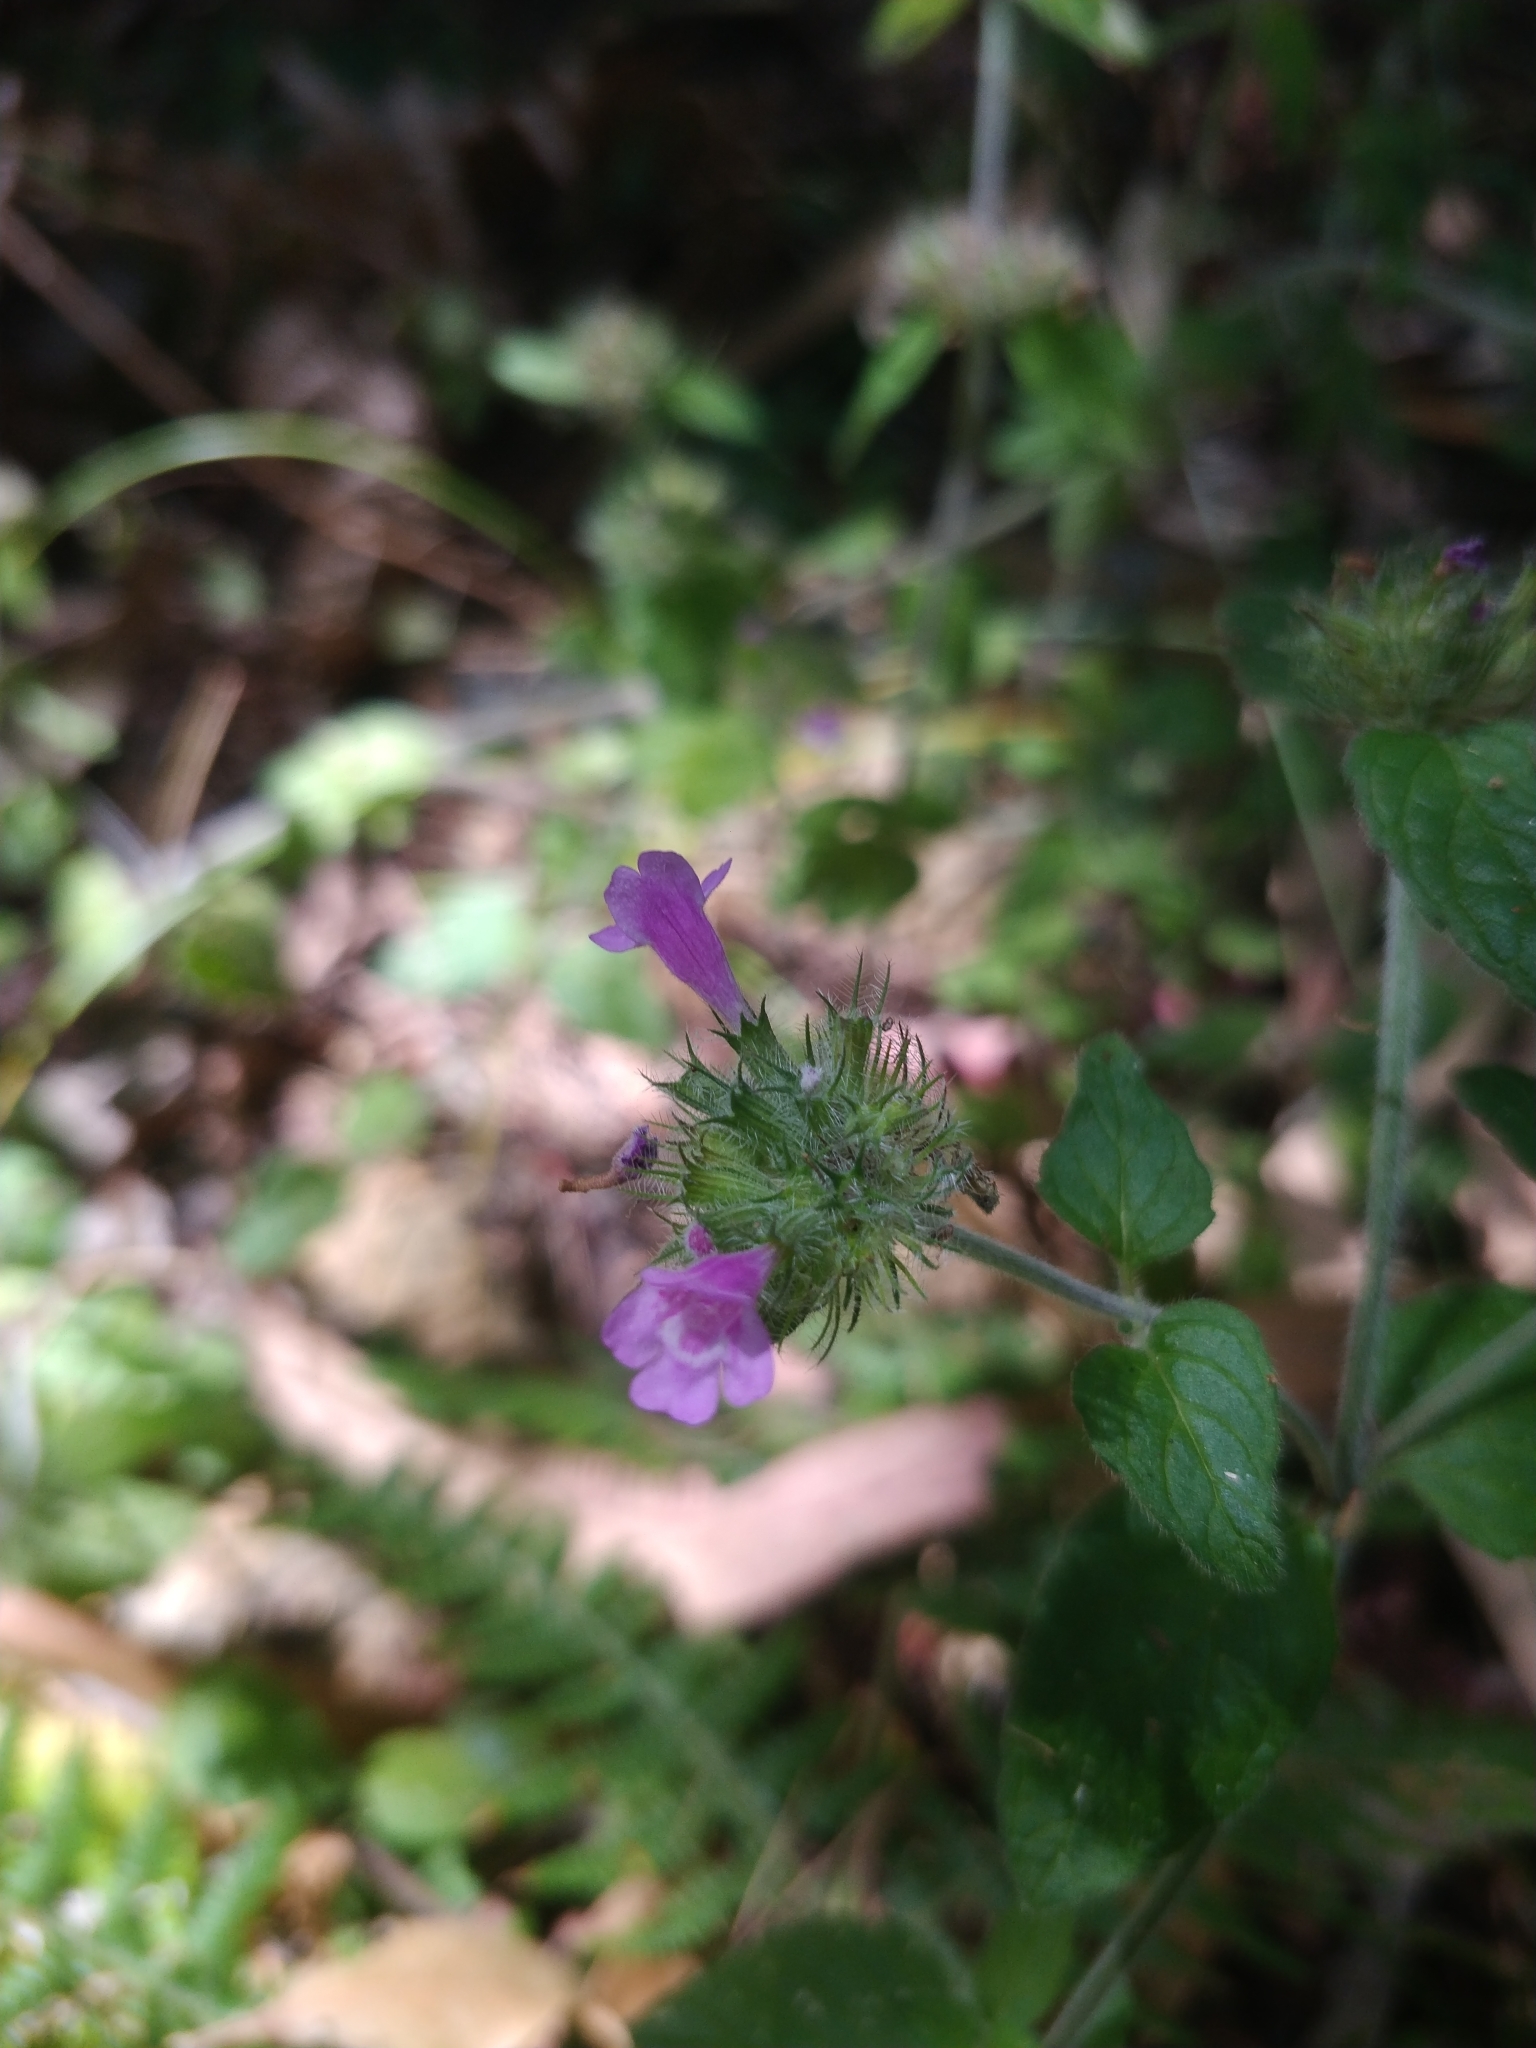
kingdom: Plantae
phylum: Tracheophyta
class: Magnoliopsida
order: Lamiales
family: Lamiaceae
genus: Clinopodium
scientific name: Clinopodium vulgare
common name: Wild basil
